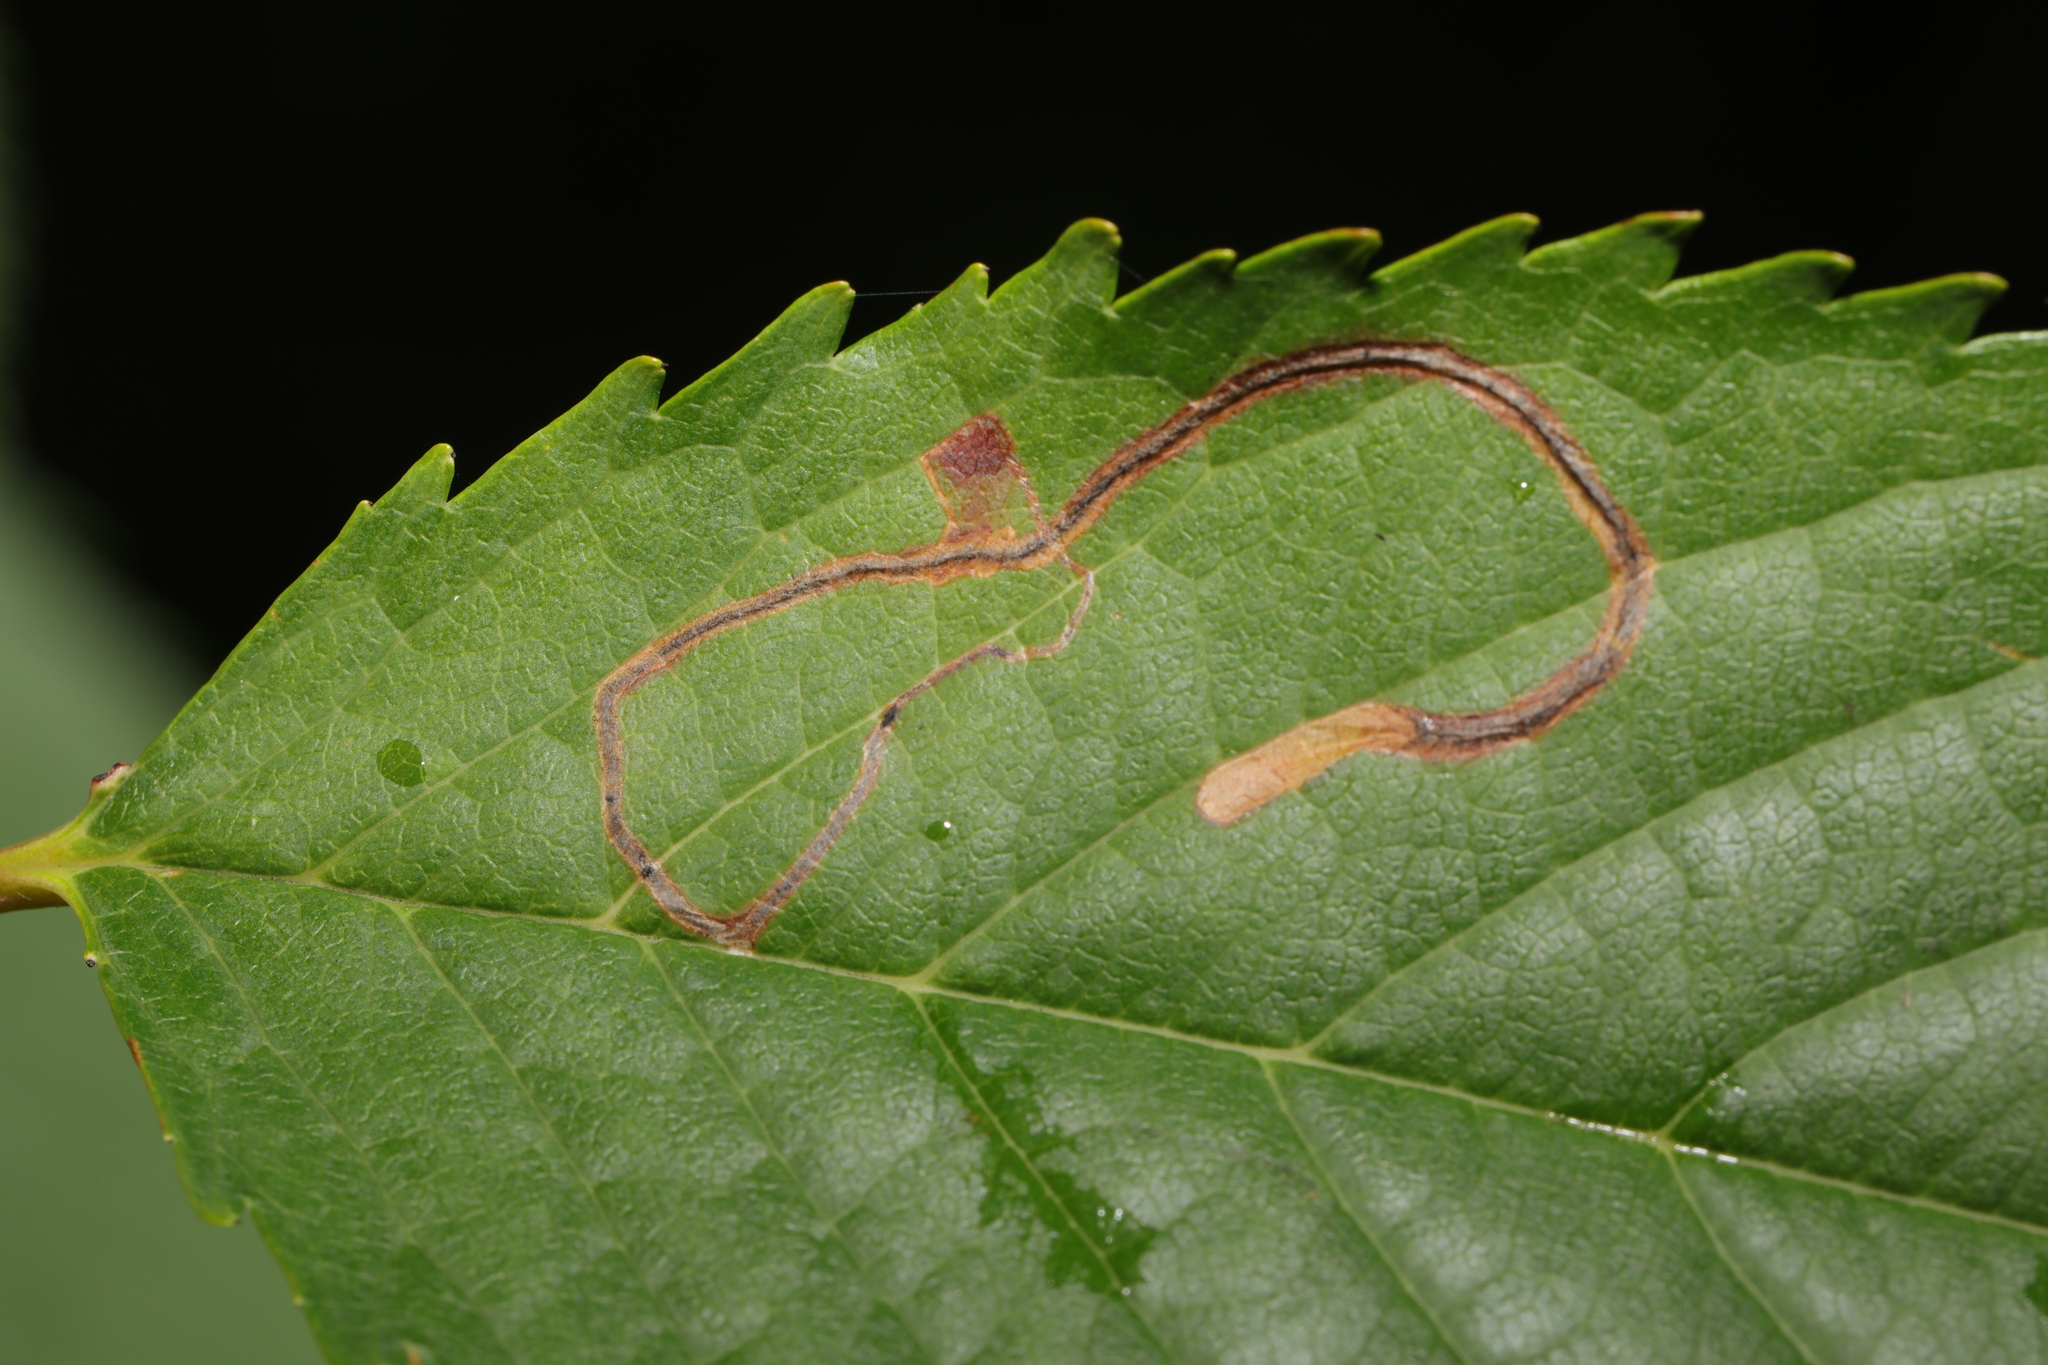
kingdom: Animalia
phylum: Arthropoda
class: Insecta
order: Lepidoptera
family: Lyonetiidae
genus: Lyonetia
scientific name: Lyonetia clerkella
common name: Apple leaf miner
